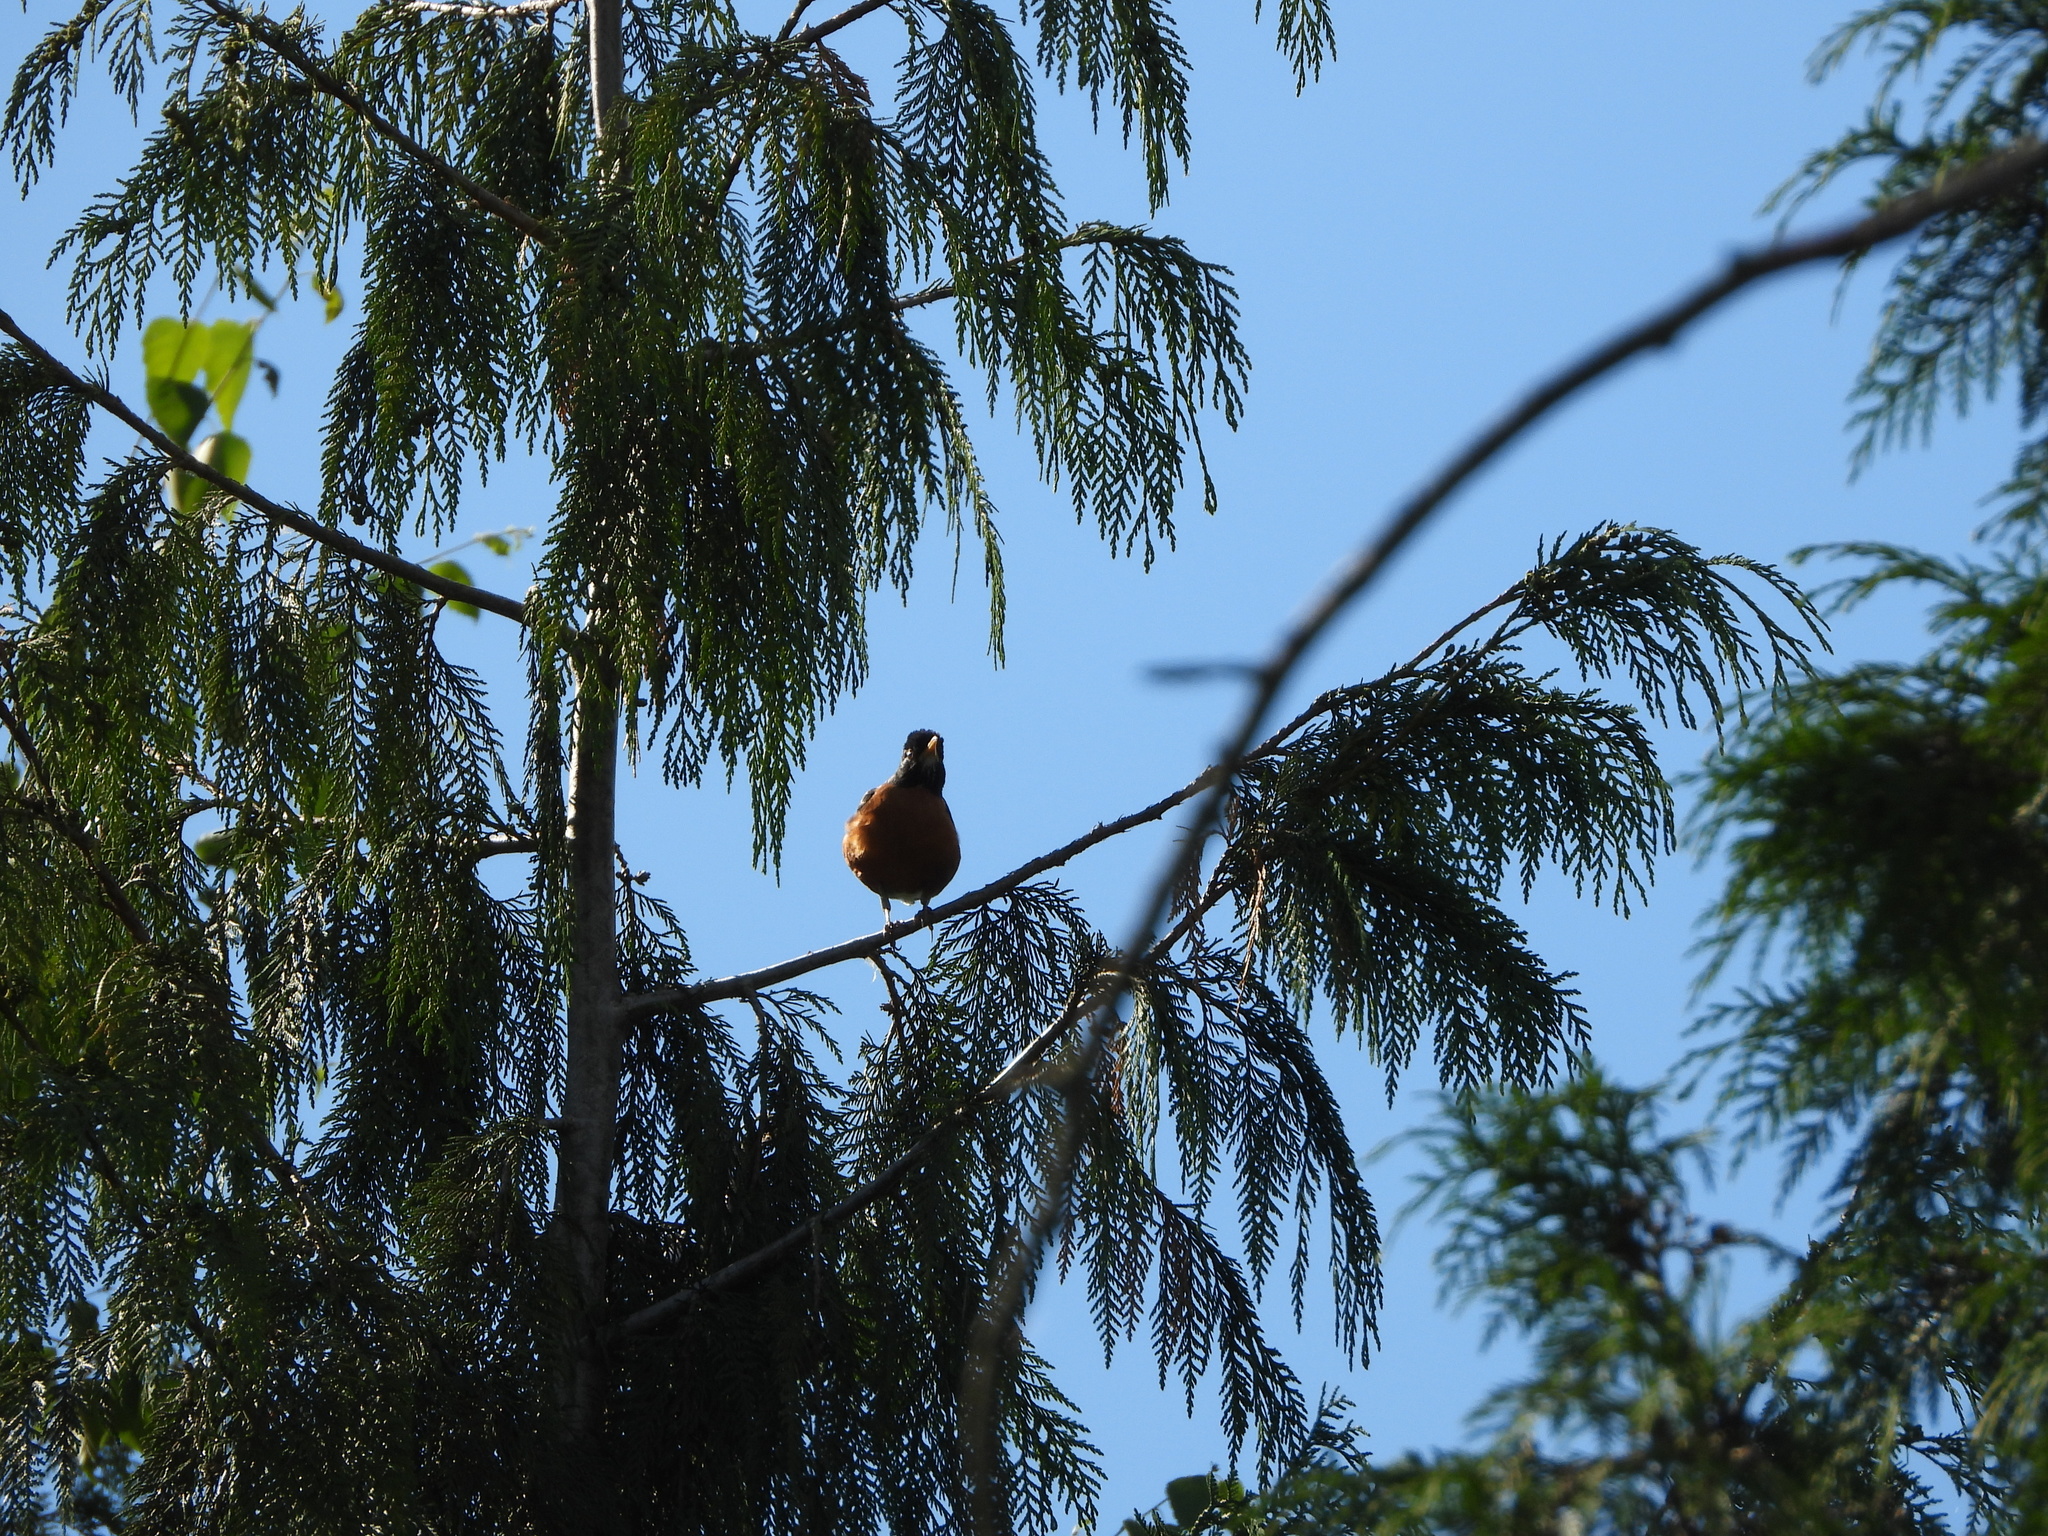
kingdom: Animalia
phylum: Chordata
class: Aves
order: Passeriformes
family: Turdidae
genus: Turdus
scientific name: Turdus migratorius
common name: American robin
